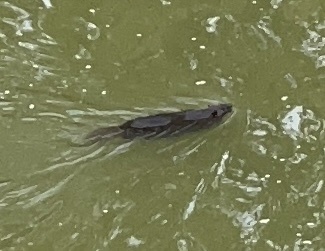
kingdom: Animalia
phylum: Chordata
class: Mammalia
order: Rodentia
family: Castoridae
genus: Castor
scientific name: Castor canadensis
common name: American beaver
